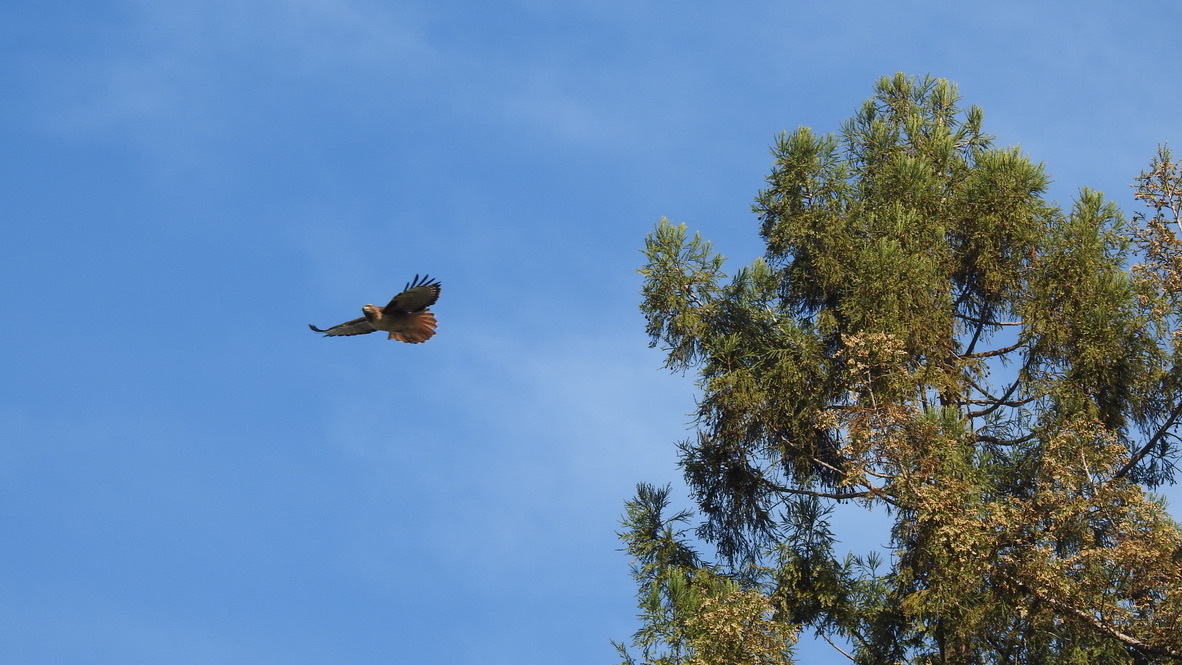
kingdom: Animalia
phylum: Chordata
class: Aves
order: Accipitriformes
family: Accipitridae
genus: Buteo
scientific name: Buteo jamaicensis
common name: Red-tailed hawk
